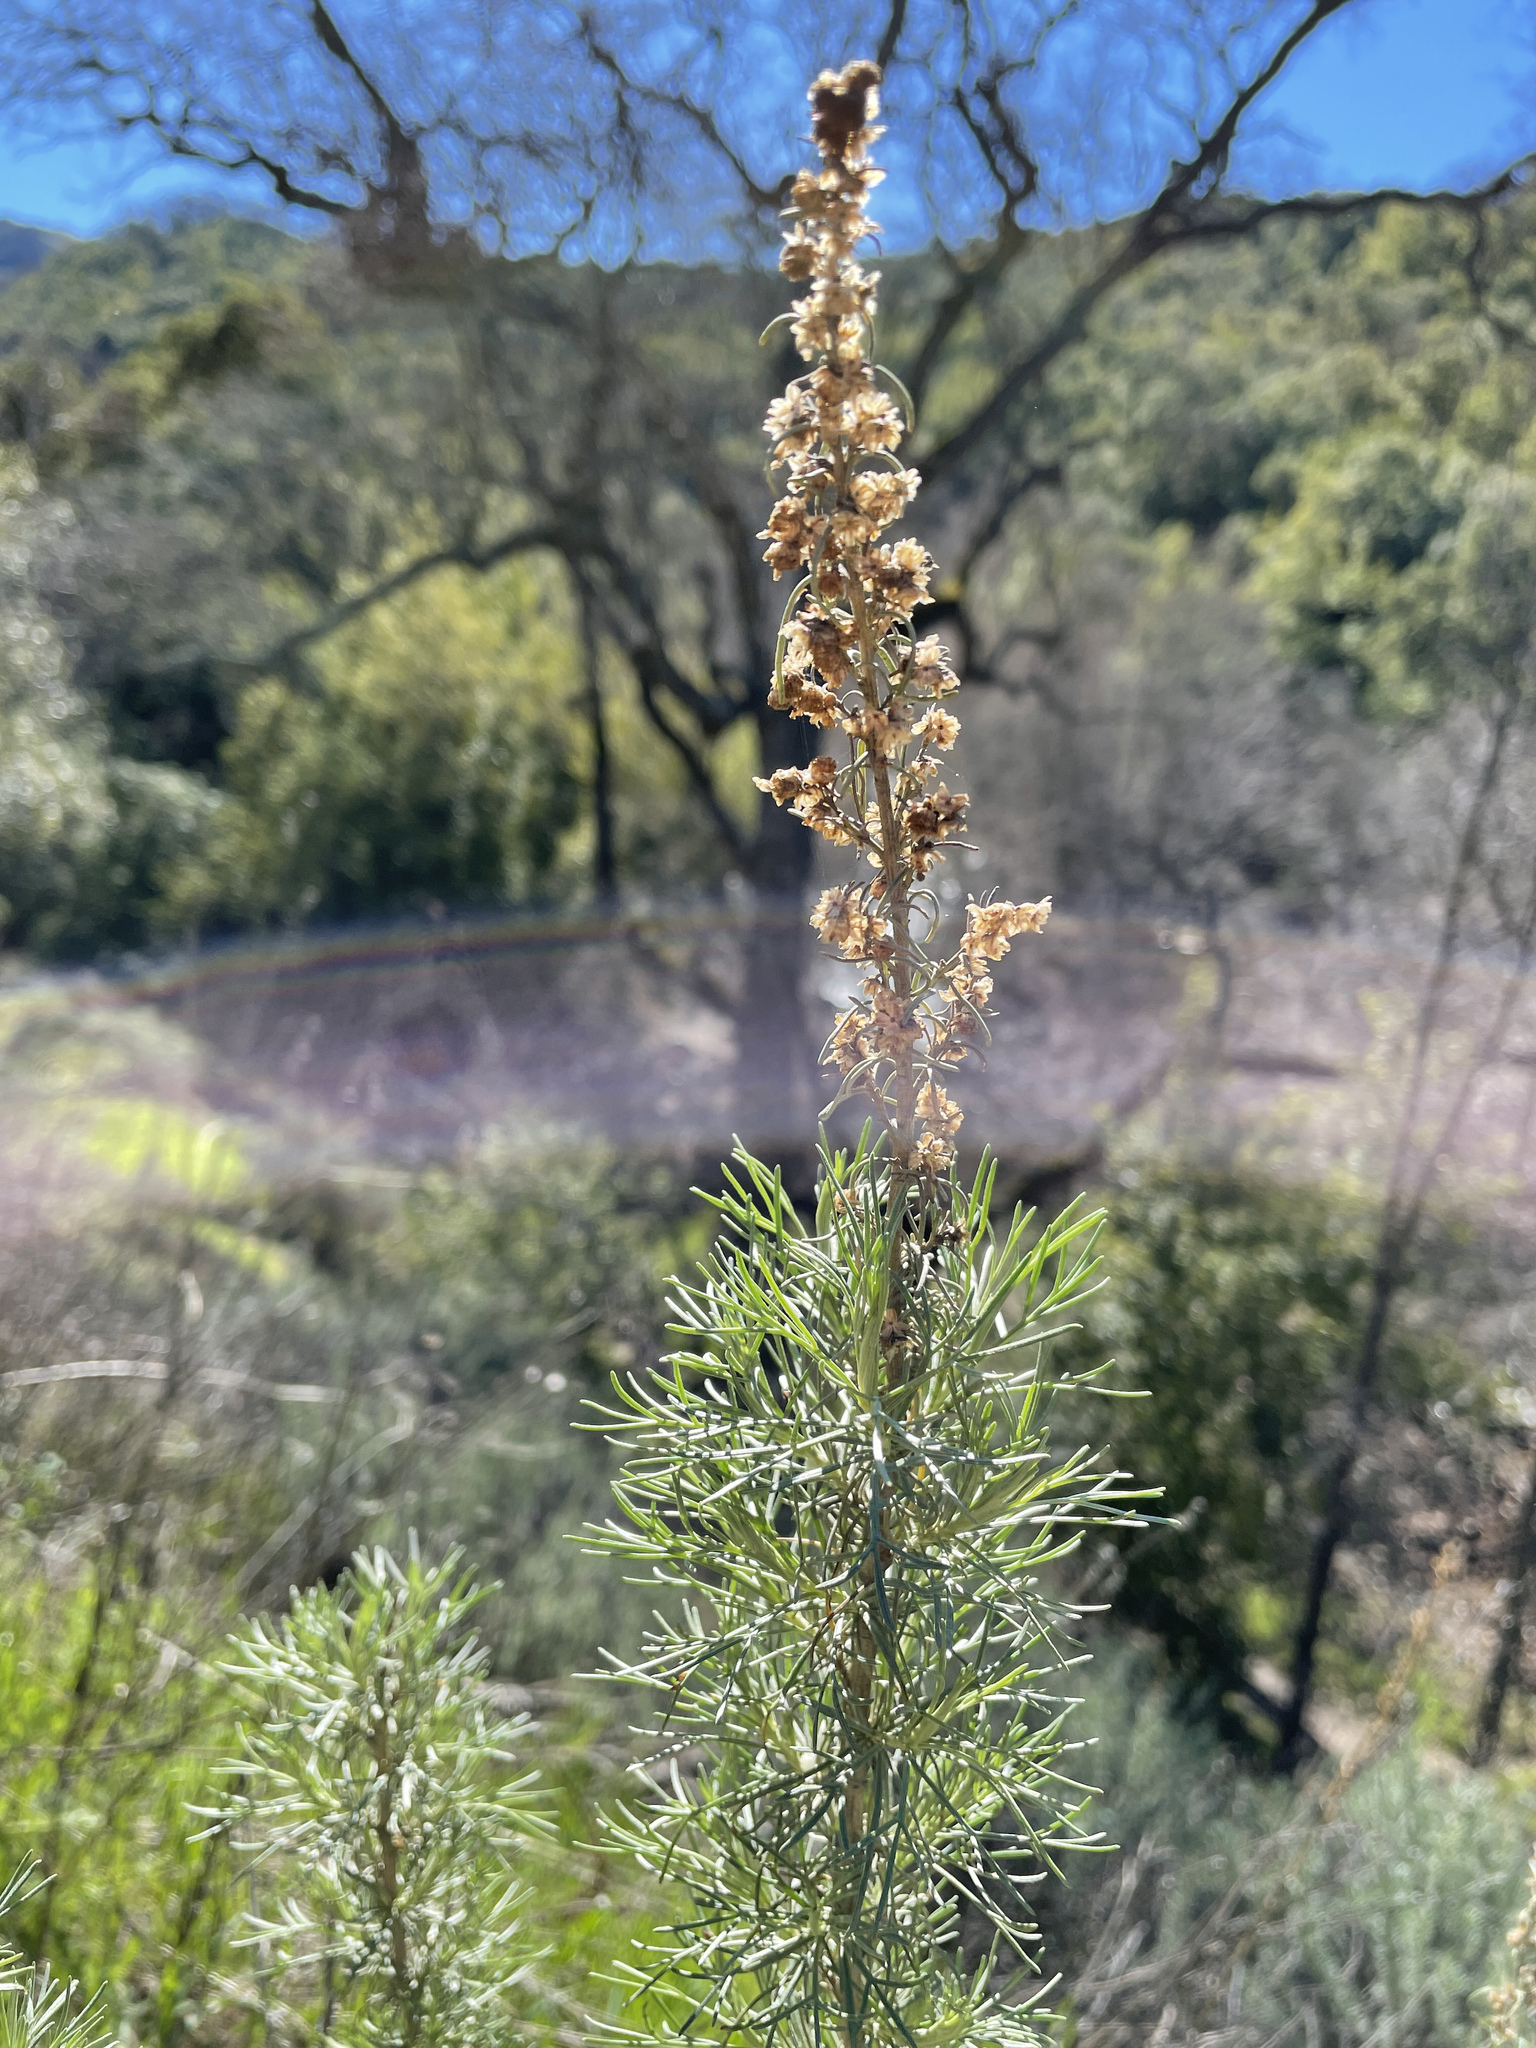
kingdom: Plantae
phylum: Tracheophyta
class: Magnoliopsida
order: Asterales
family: Asteraceae
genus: Artemisia
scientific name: Artemisia californica
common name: California sagebrush
